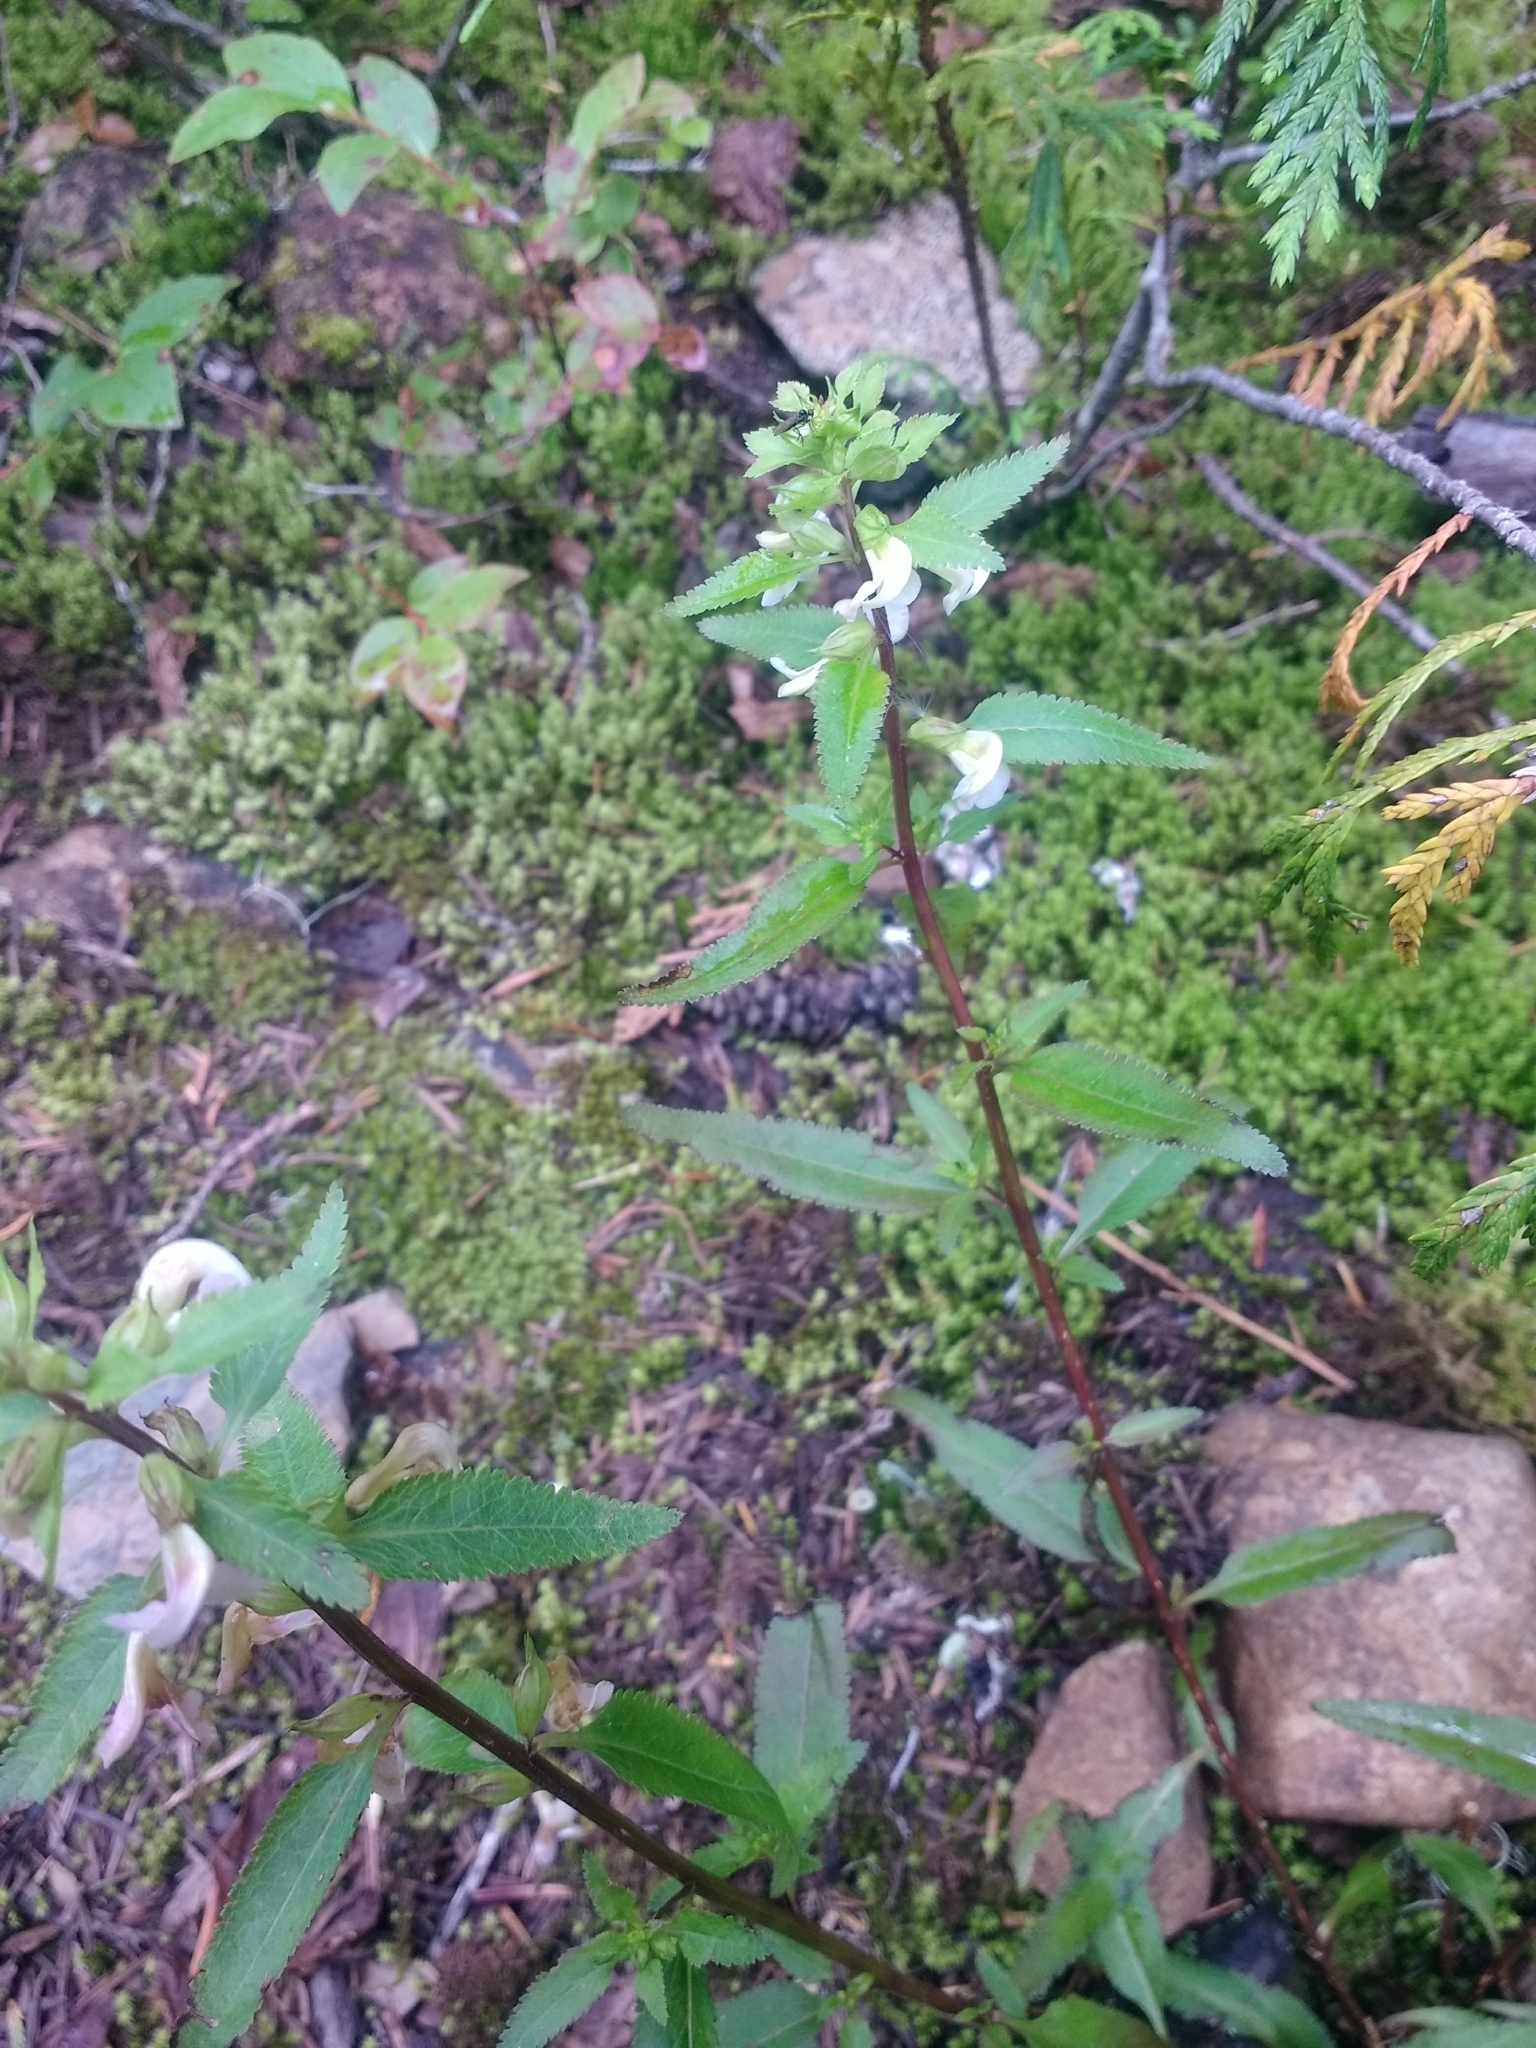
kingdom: Plantae
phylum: Tracheophyta
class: Magnoliopsida
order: Lamiales
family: Orobanchaceae
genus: Pedicularis
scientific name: Pedicularis racemosa
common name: Leafy lousewort
